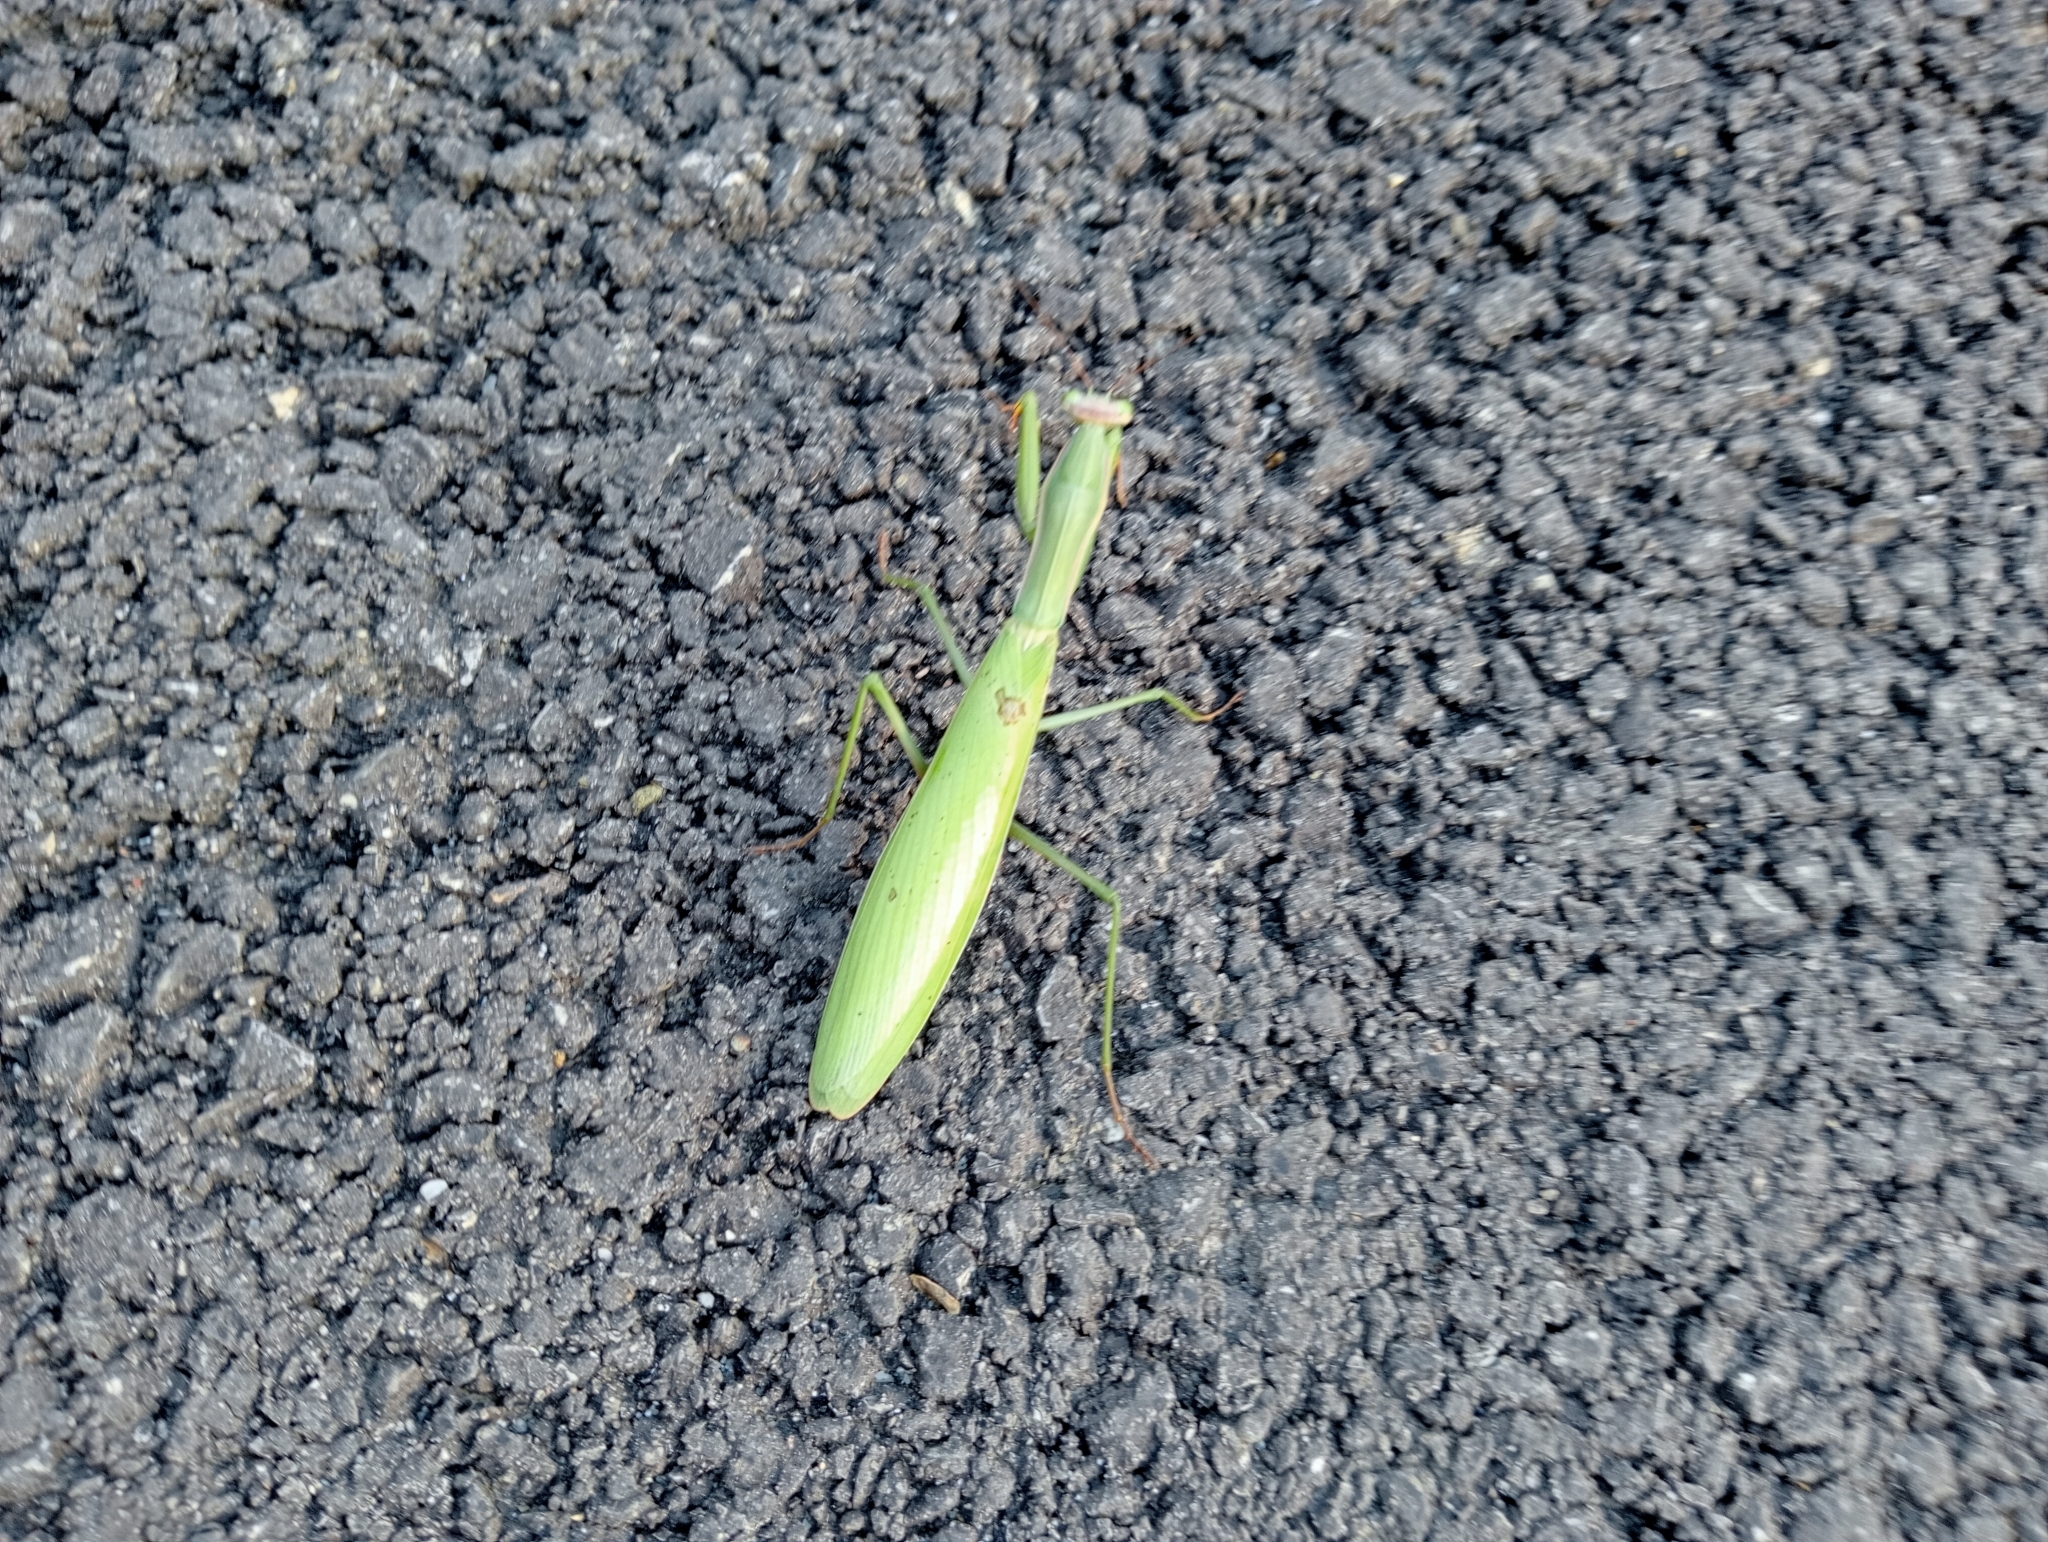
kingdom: Animalia
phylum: Arthropoda
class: Insecta
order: Mantodea
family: Mantidae
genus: Mantis
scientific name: Mantis religiosa
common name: Praying mantis
